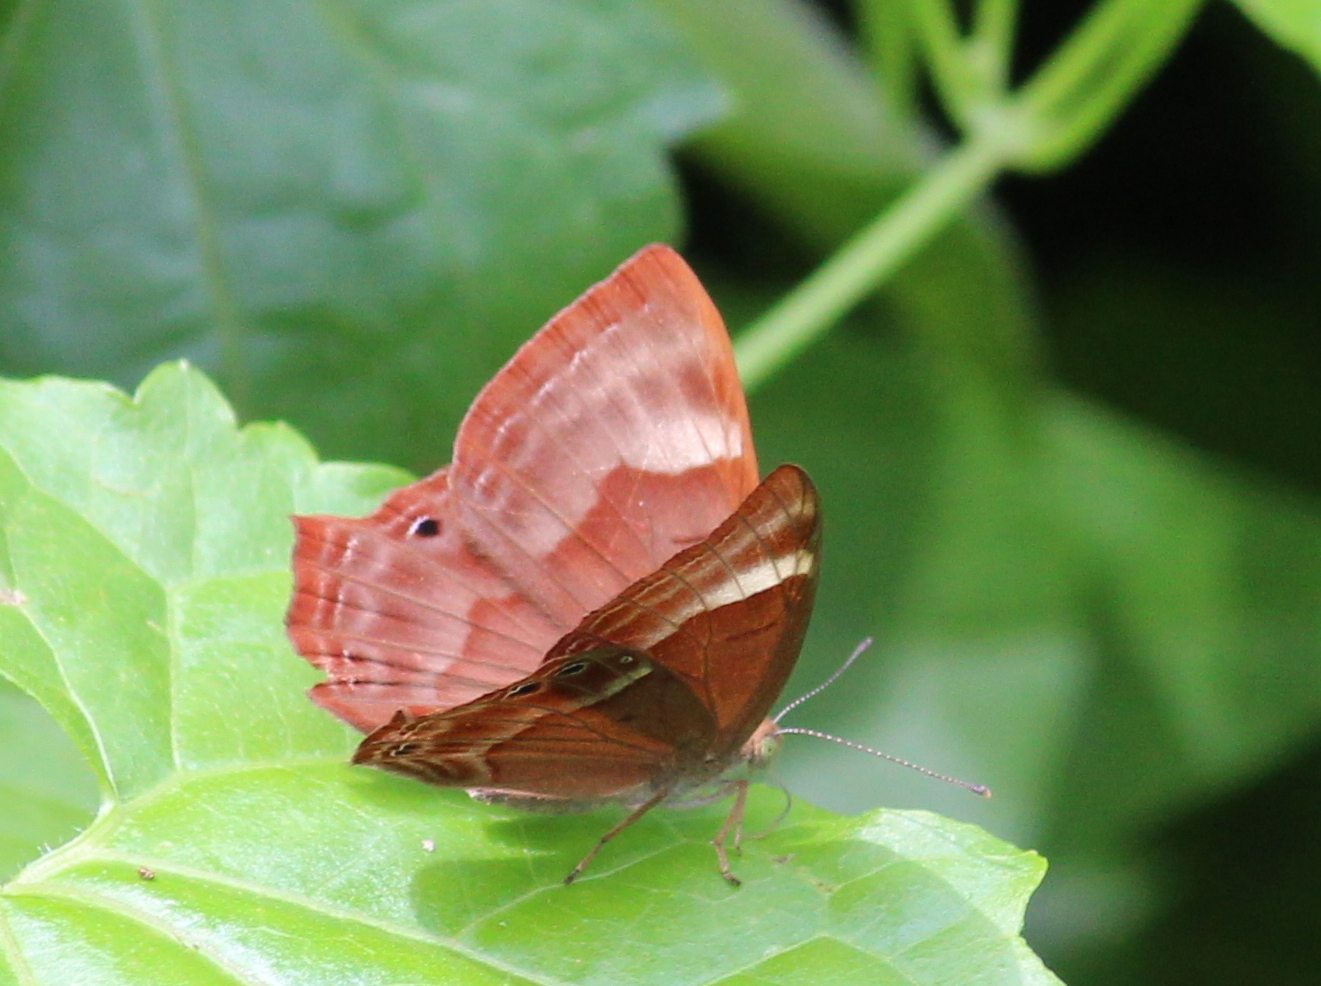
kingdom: Animalia
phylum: Arthropoda
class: Insecta
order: Lepidoptera
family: Lycaenidae
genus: Abisara
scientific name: Abisara bifasciata
